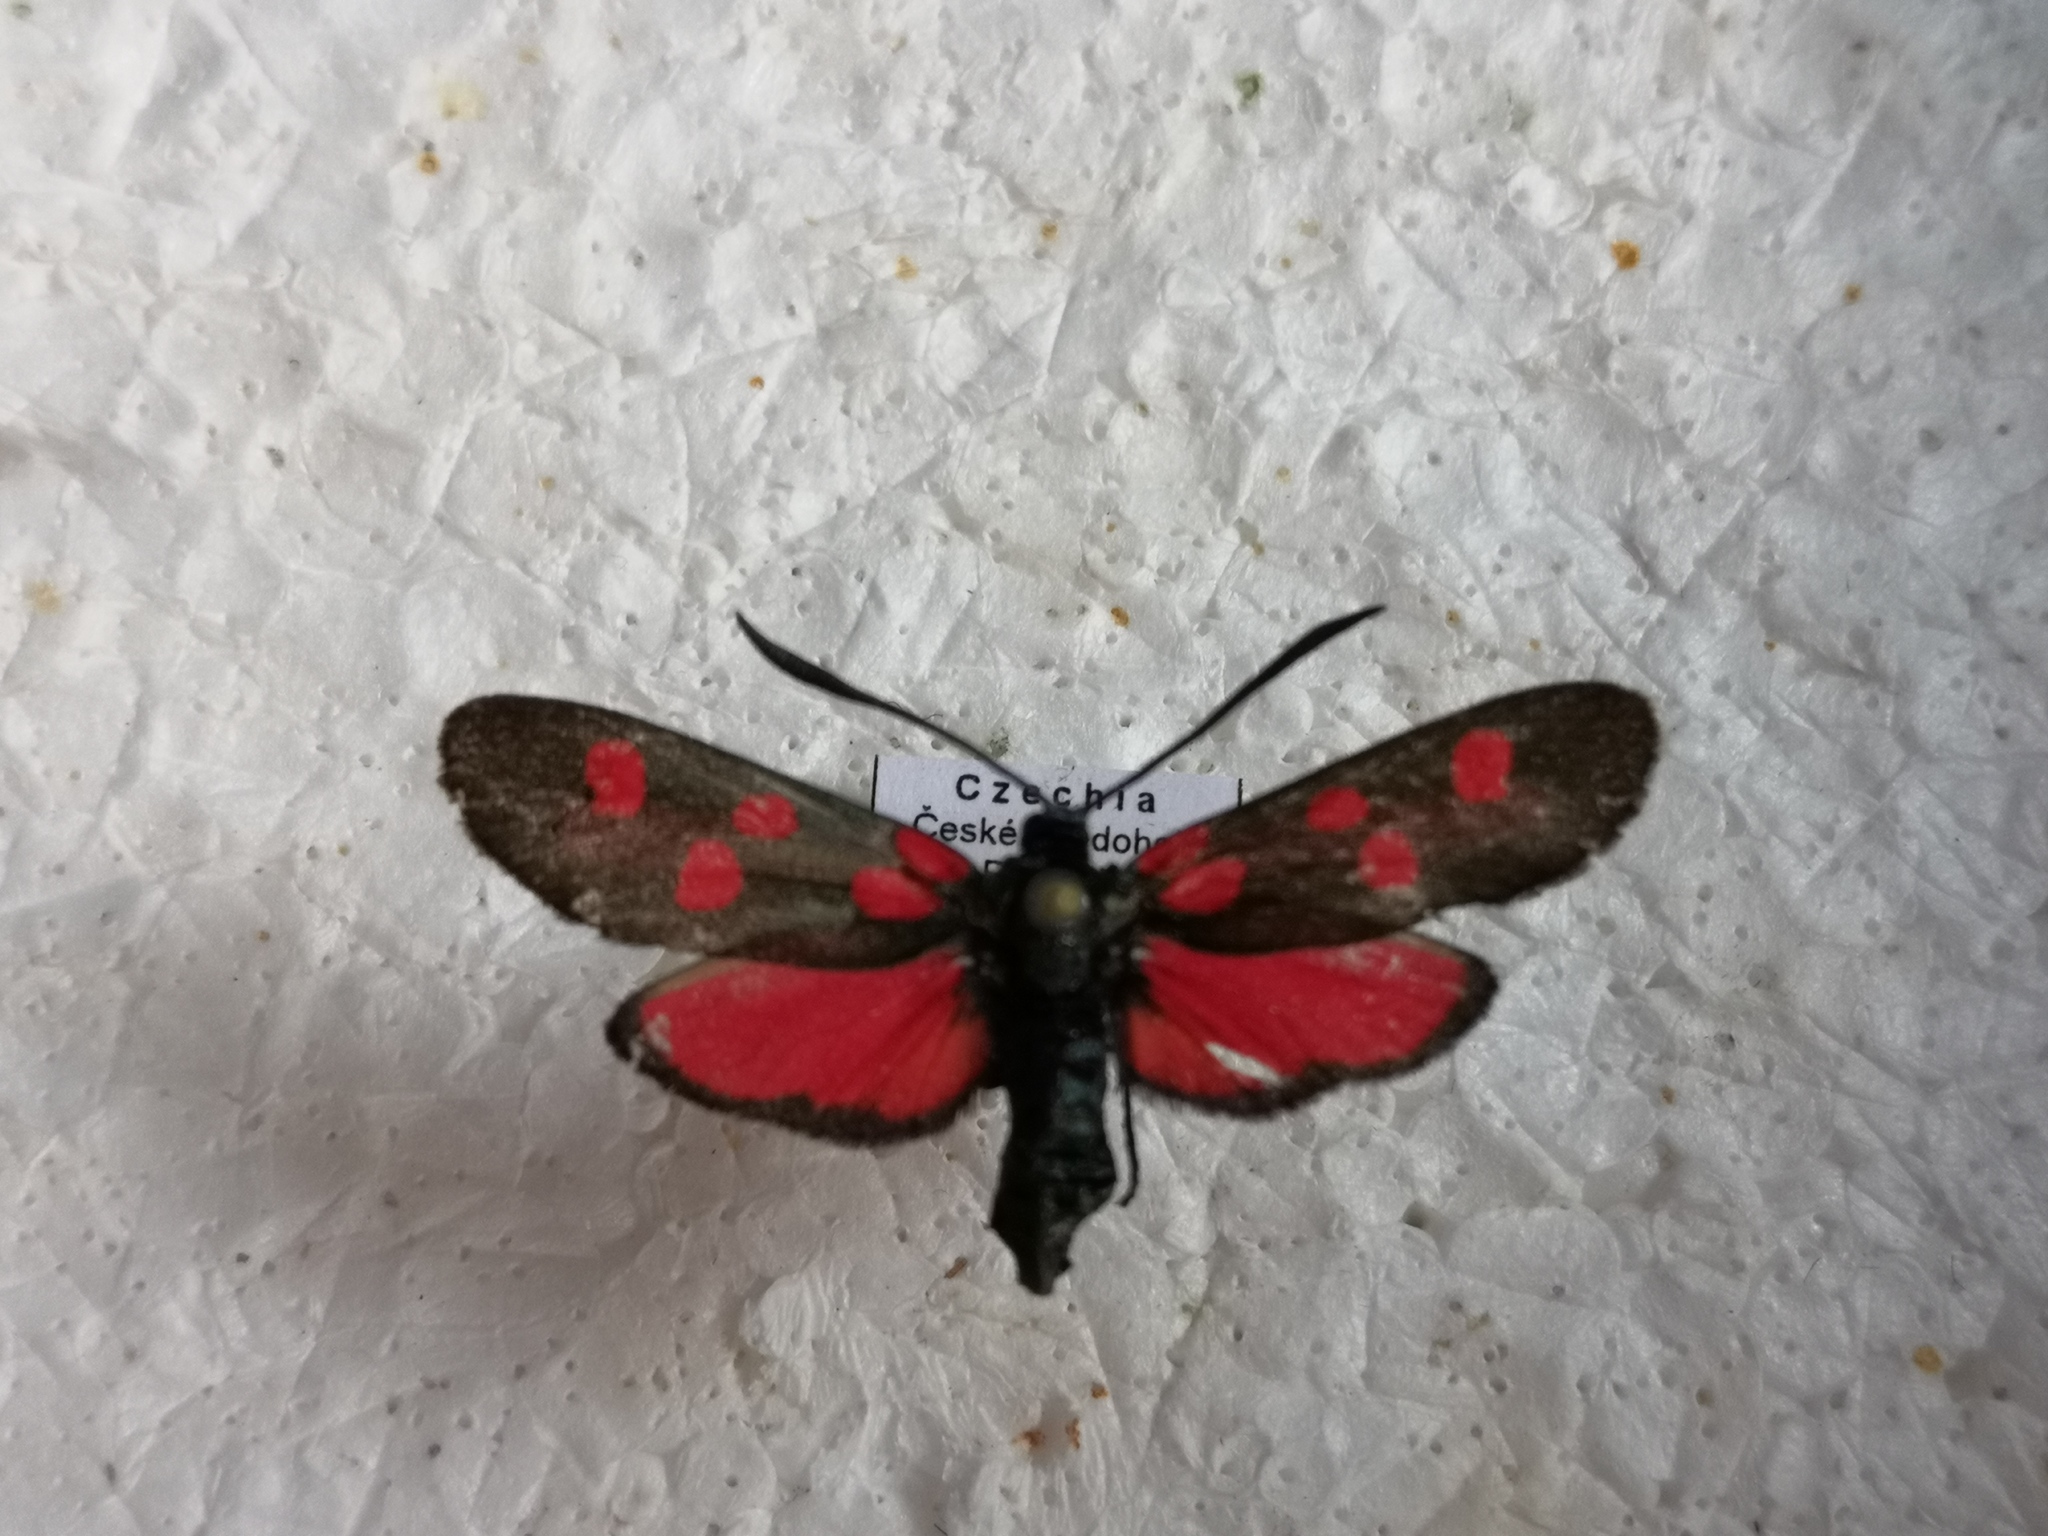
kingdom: Animalia
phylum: Arthropoda
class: Insecta
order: Lepidoptera
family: Zygaenidae
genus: Zygaena
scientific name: Zygaena angelicae
